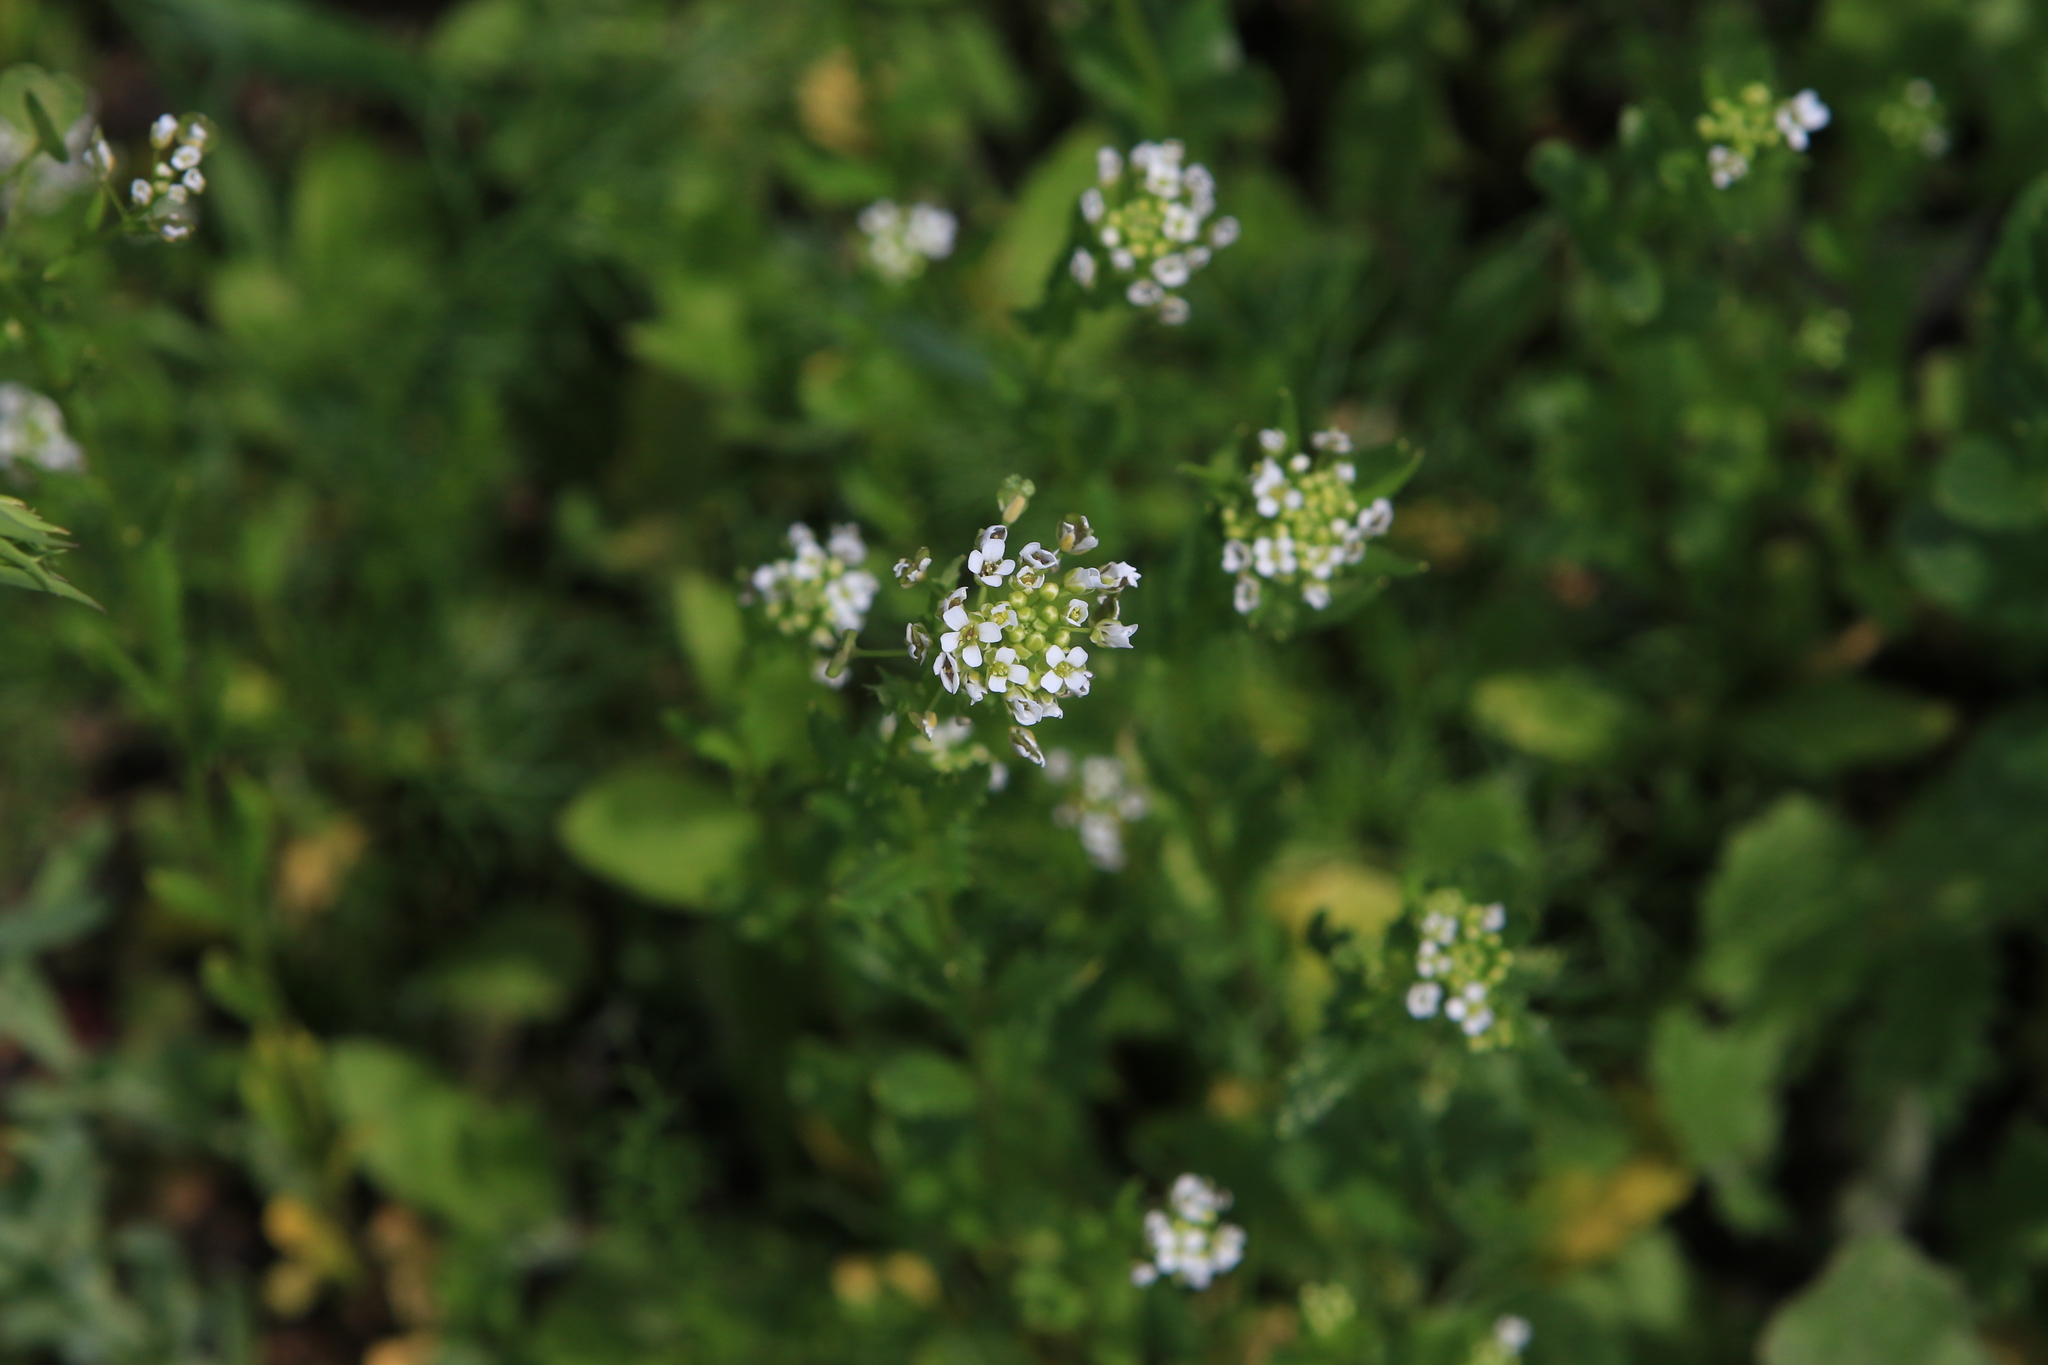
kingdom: Plantae
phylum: Tracheophyta
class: Magnoliopsida
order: Brassicales
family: Brassicaceae
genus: Thlaspi
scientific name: Thlaspi arvense
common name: Field pennycress
